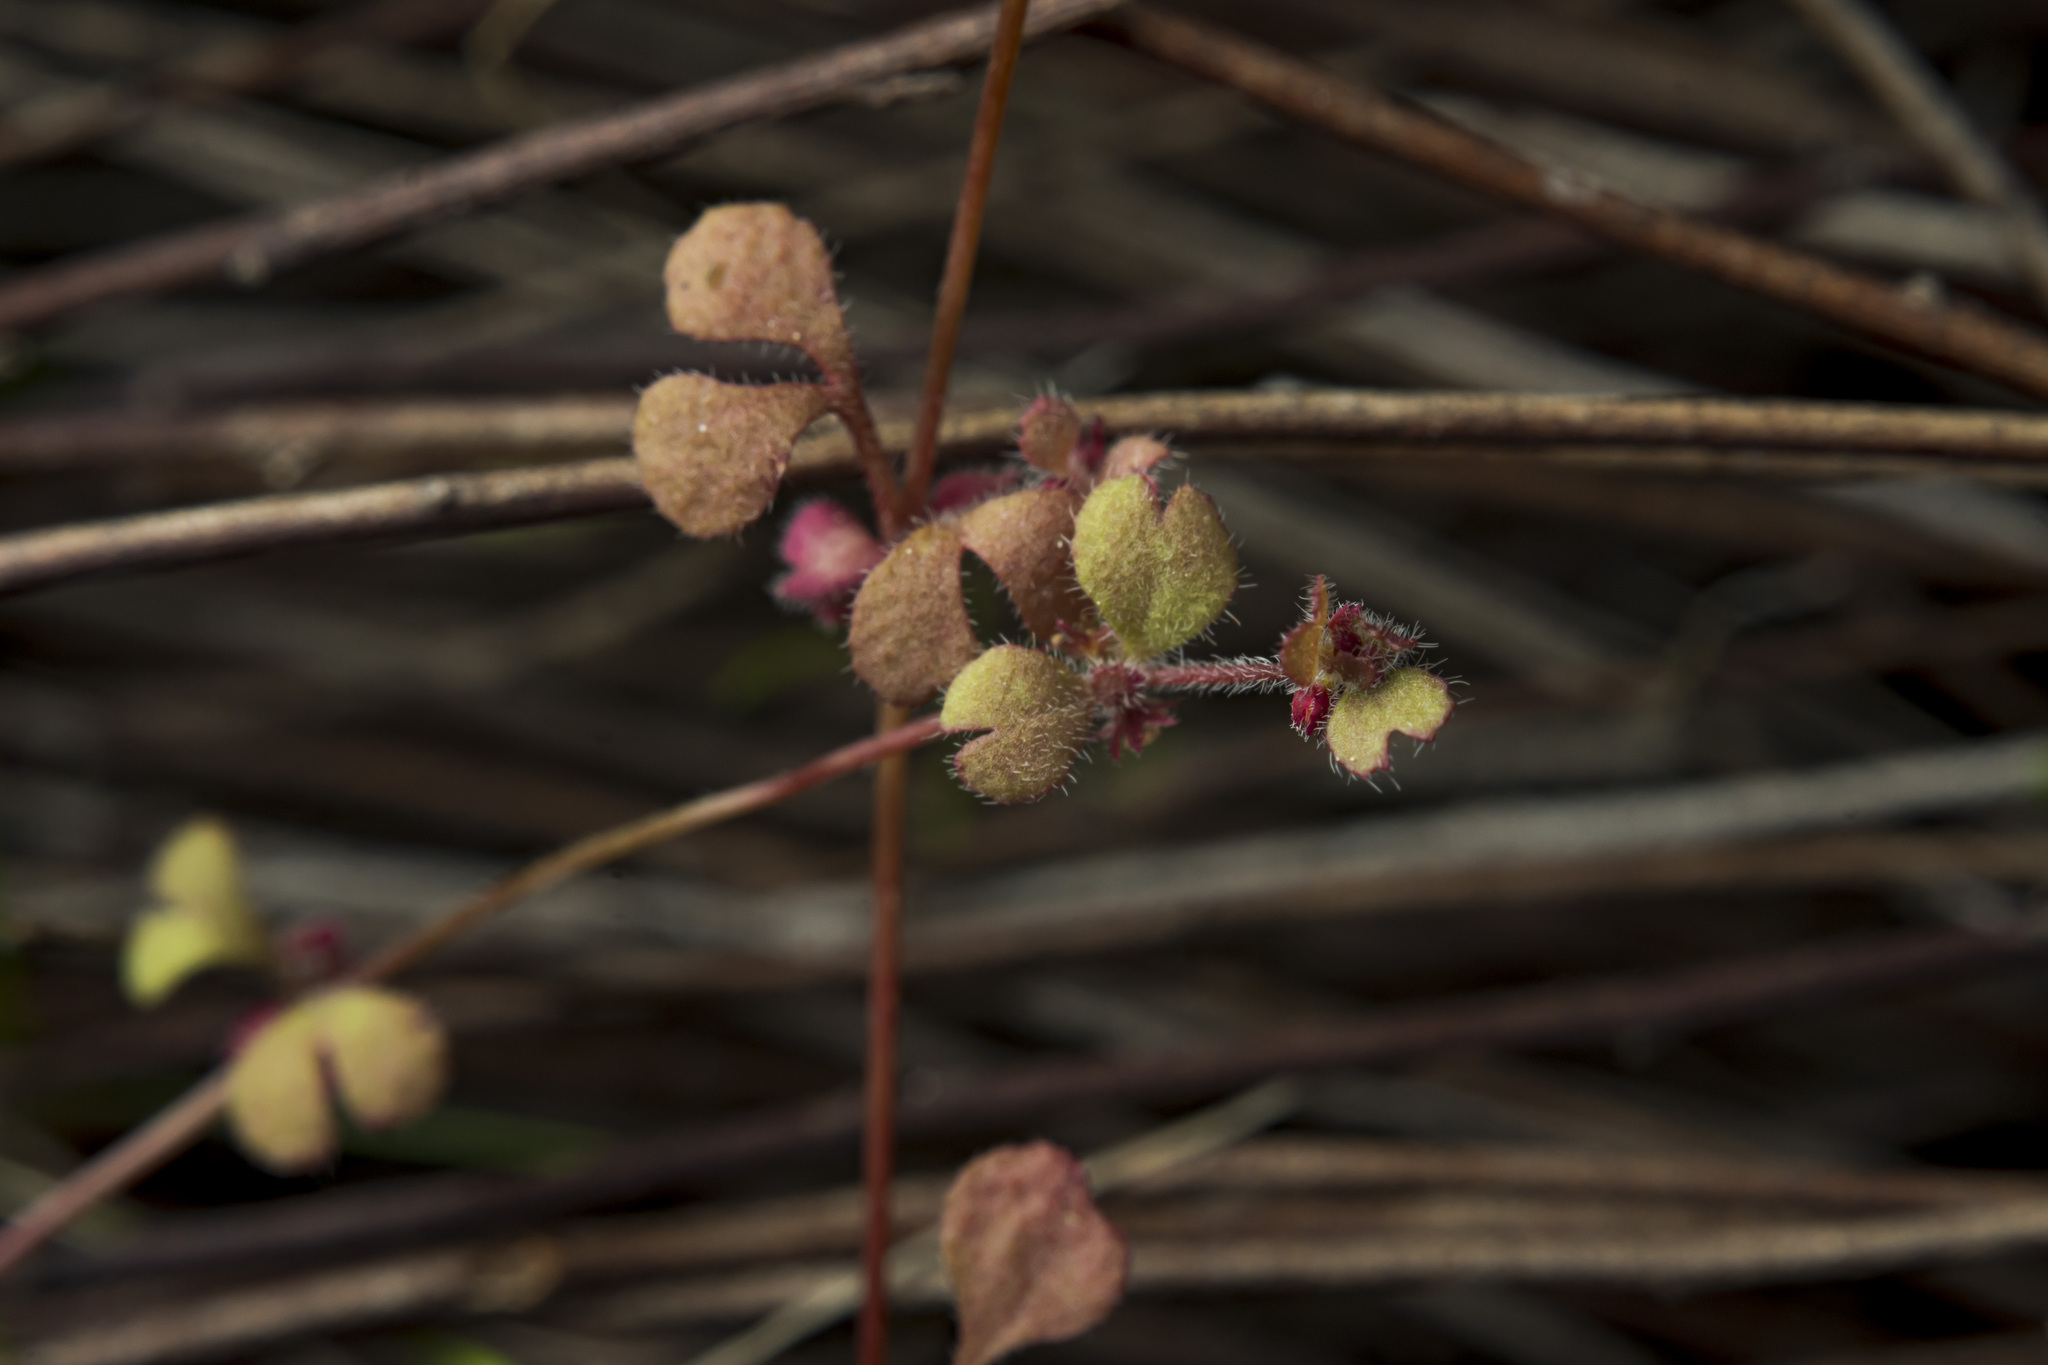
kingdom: Plantae
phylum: Tracheophyta
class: Magnoliopsida
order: Caryophyllales
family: Polygonaceae
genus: Pterostegia
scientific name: Pterostegia drymarioides
